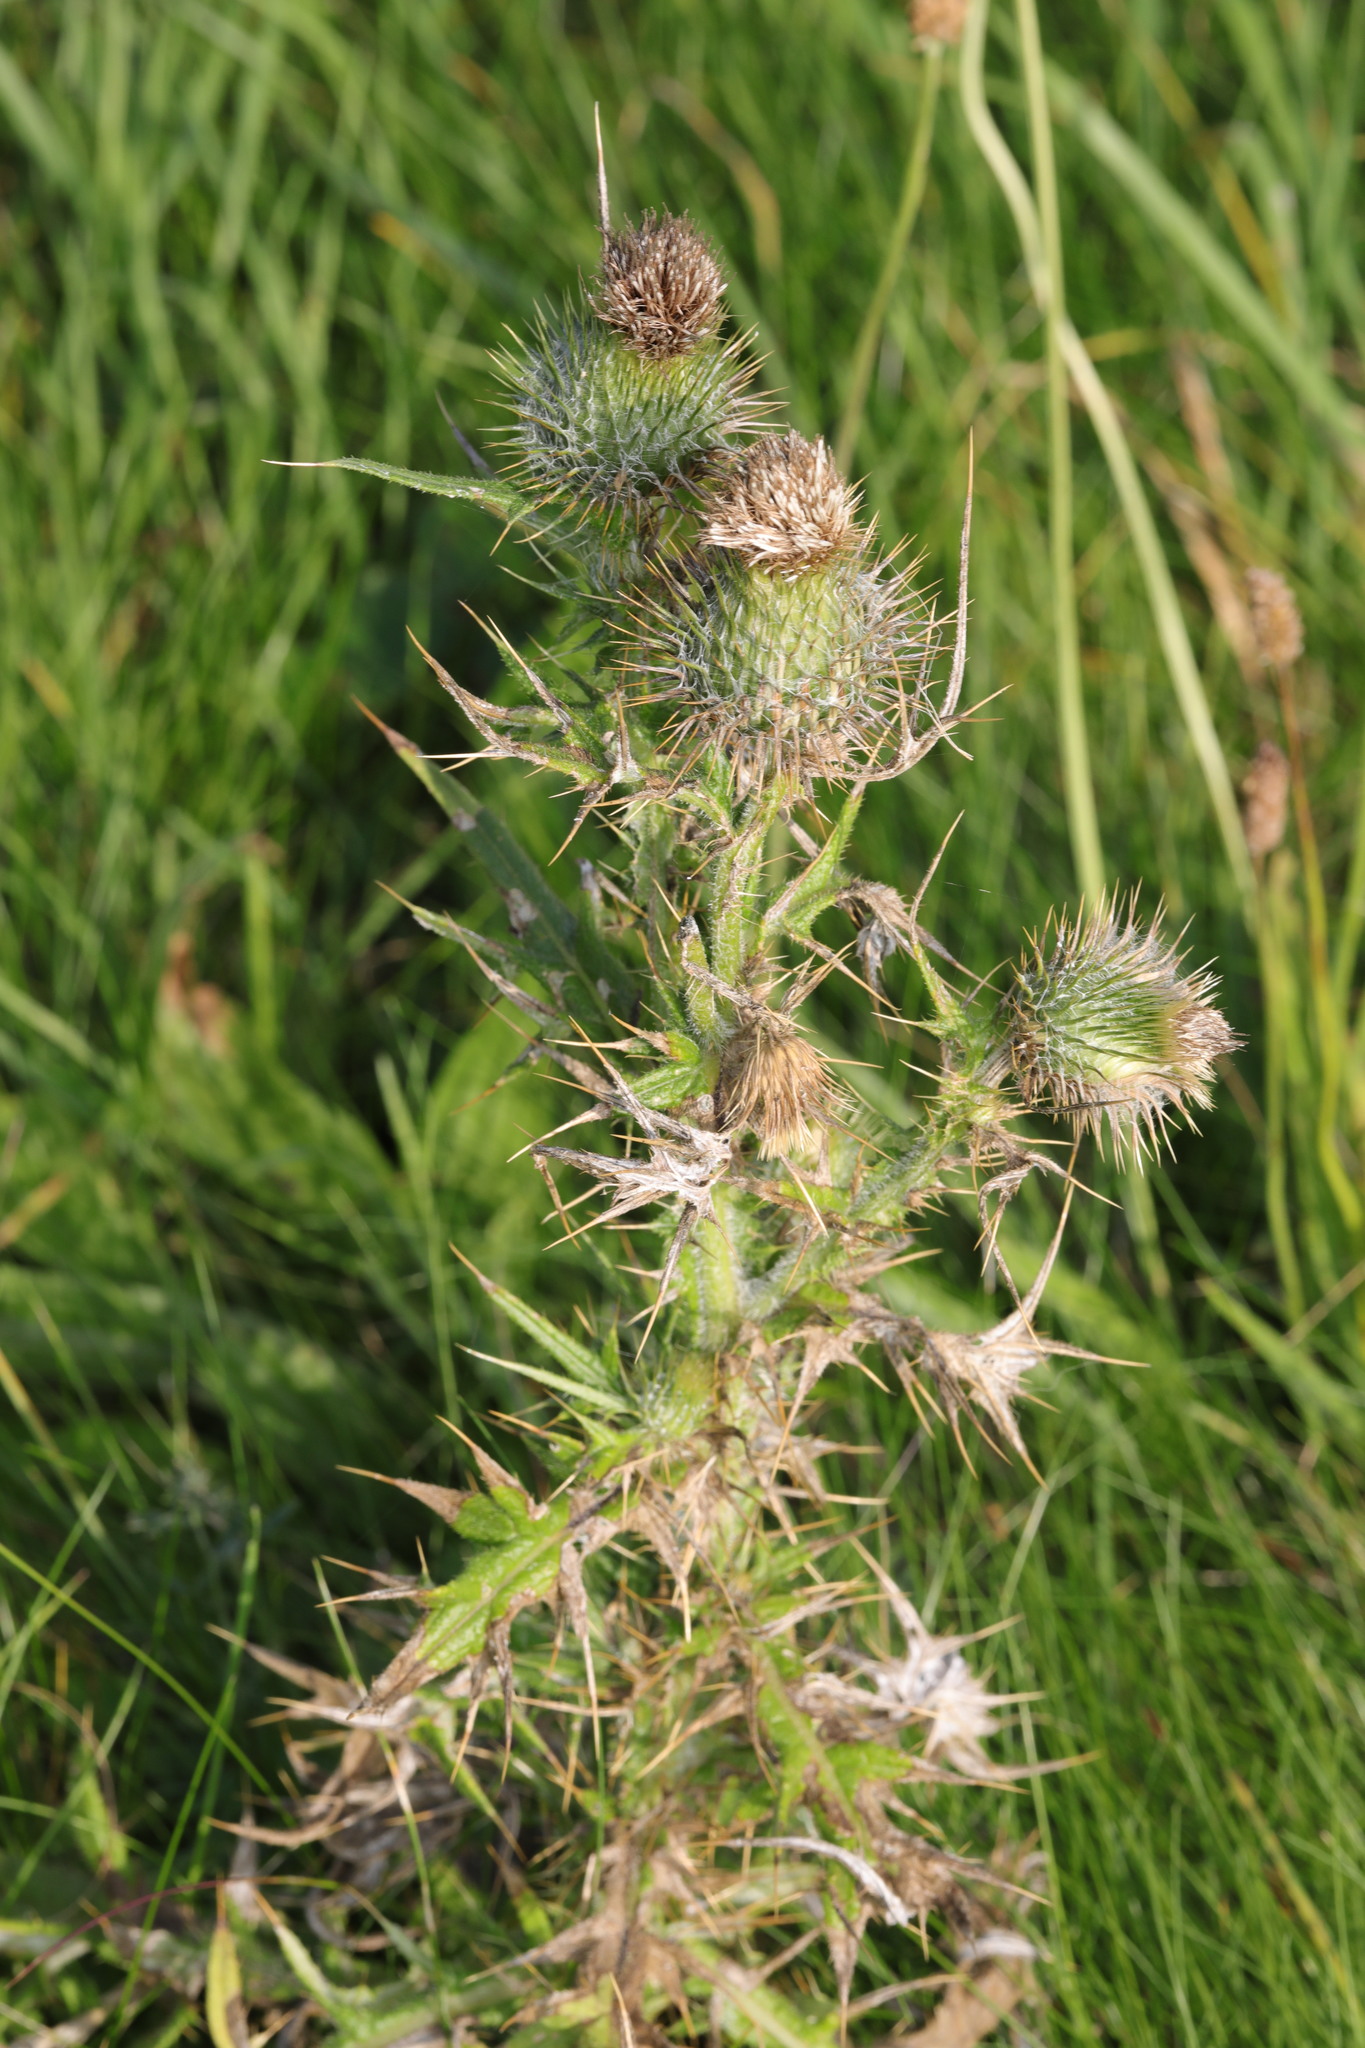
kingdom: Plantae
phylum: Tracheophyta
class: Magnoliopsida
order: Asterales
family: Asteraceae
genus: Cirsium
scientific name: Cirsium vulgare
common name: Bull thistle
